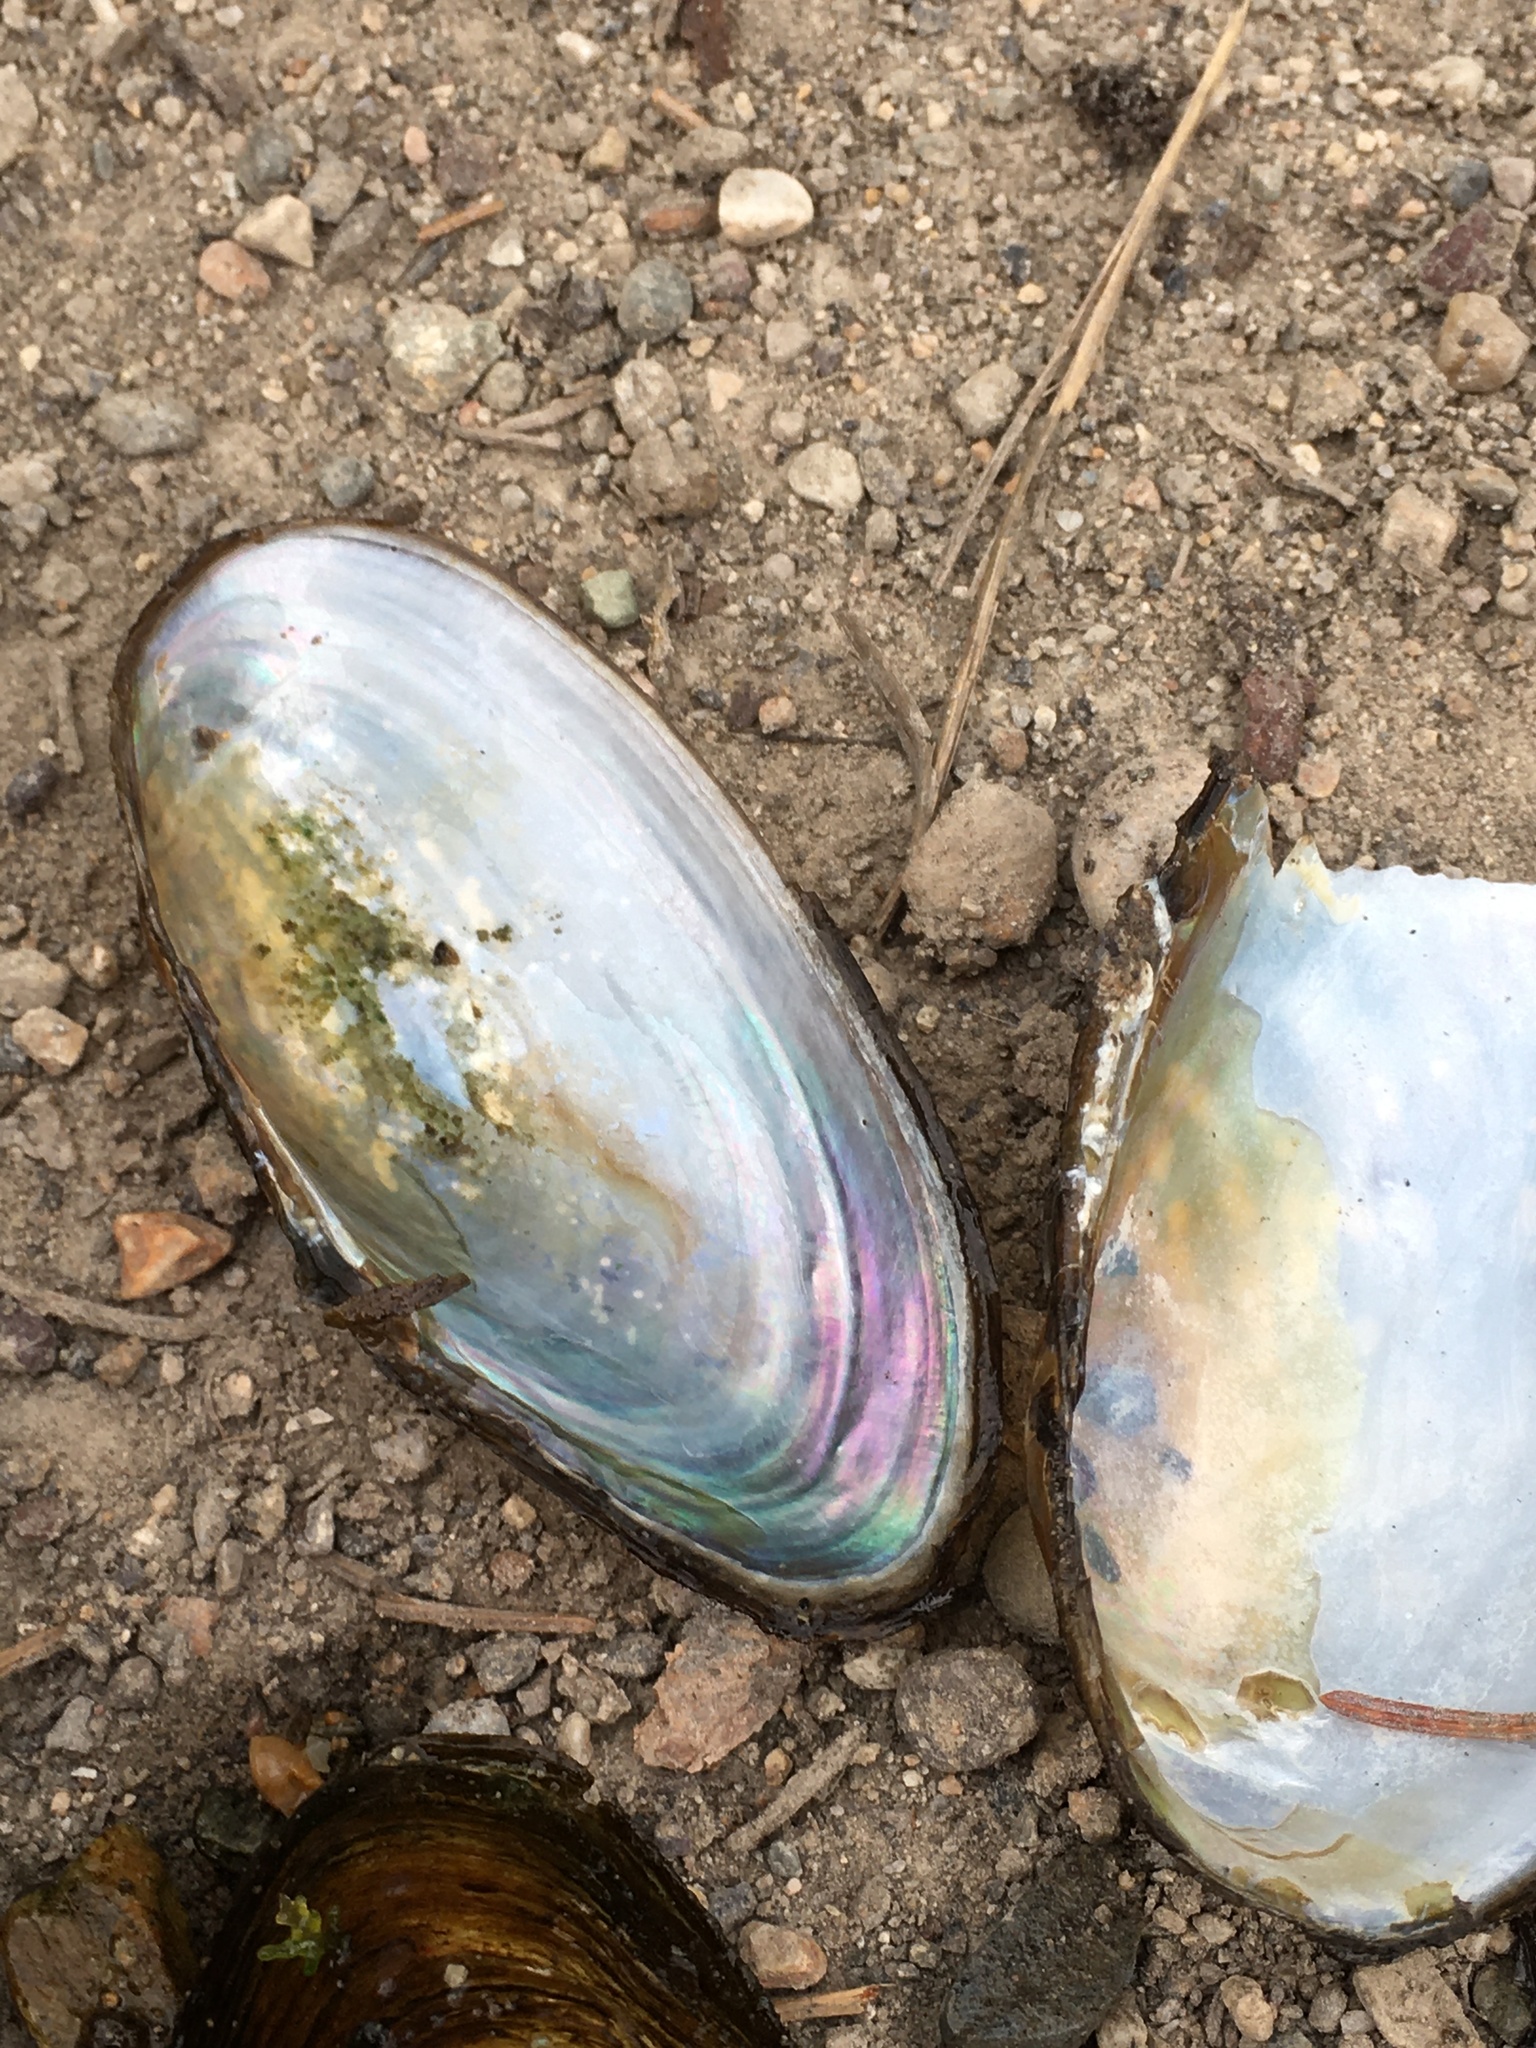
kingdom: Animalia
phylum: Mollusca
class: Bivalvia
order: Unionida
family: Unionidae
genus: Anodonta
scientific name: Anodonta kennerlyi
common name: Western floater
